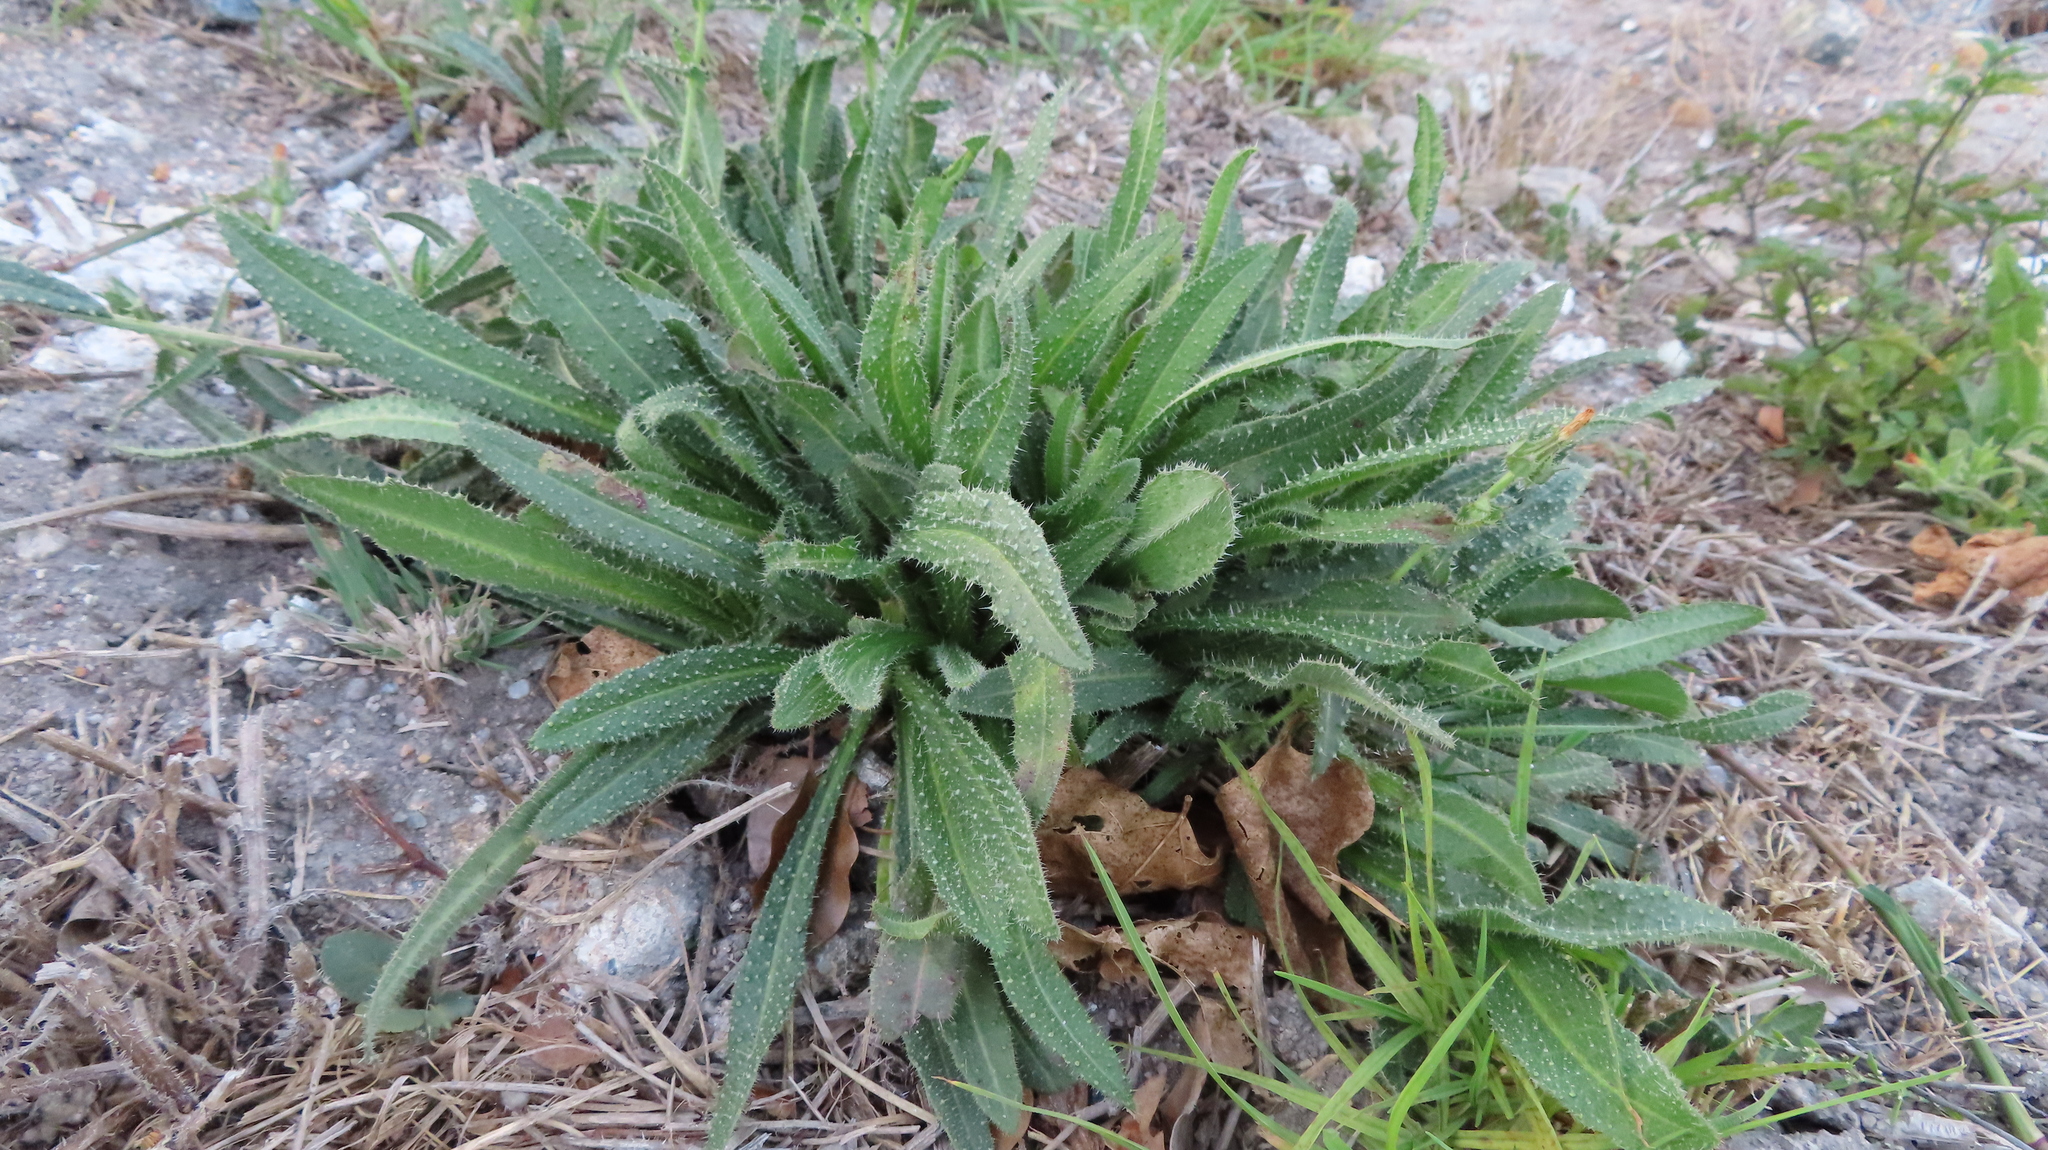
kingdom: Plantae
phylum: Tracheophyta
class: Magnoliopsida
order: Asterales
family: Asteraceae
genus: Helminthotheca
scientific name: Helminthotheca echioides
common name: Ox-tongue
